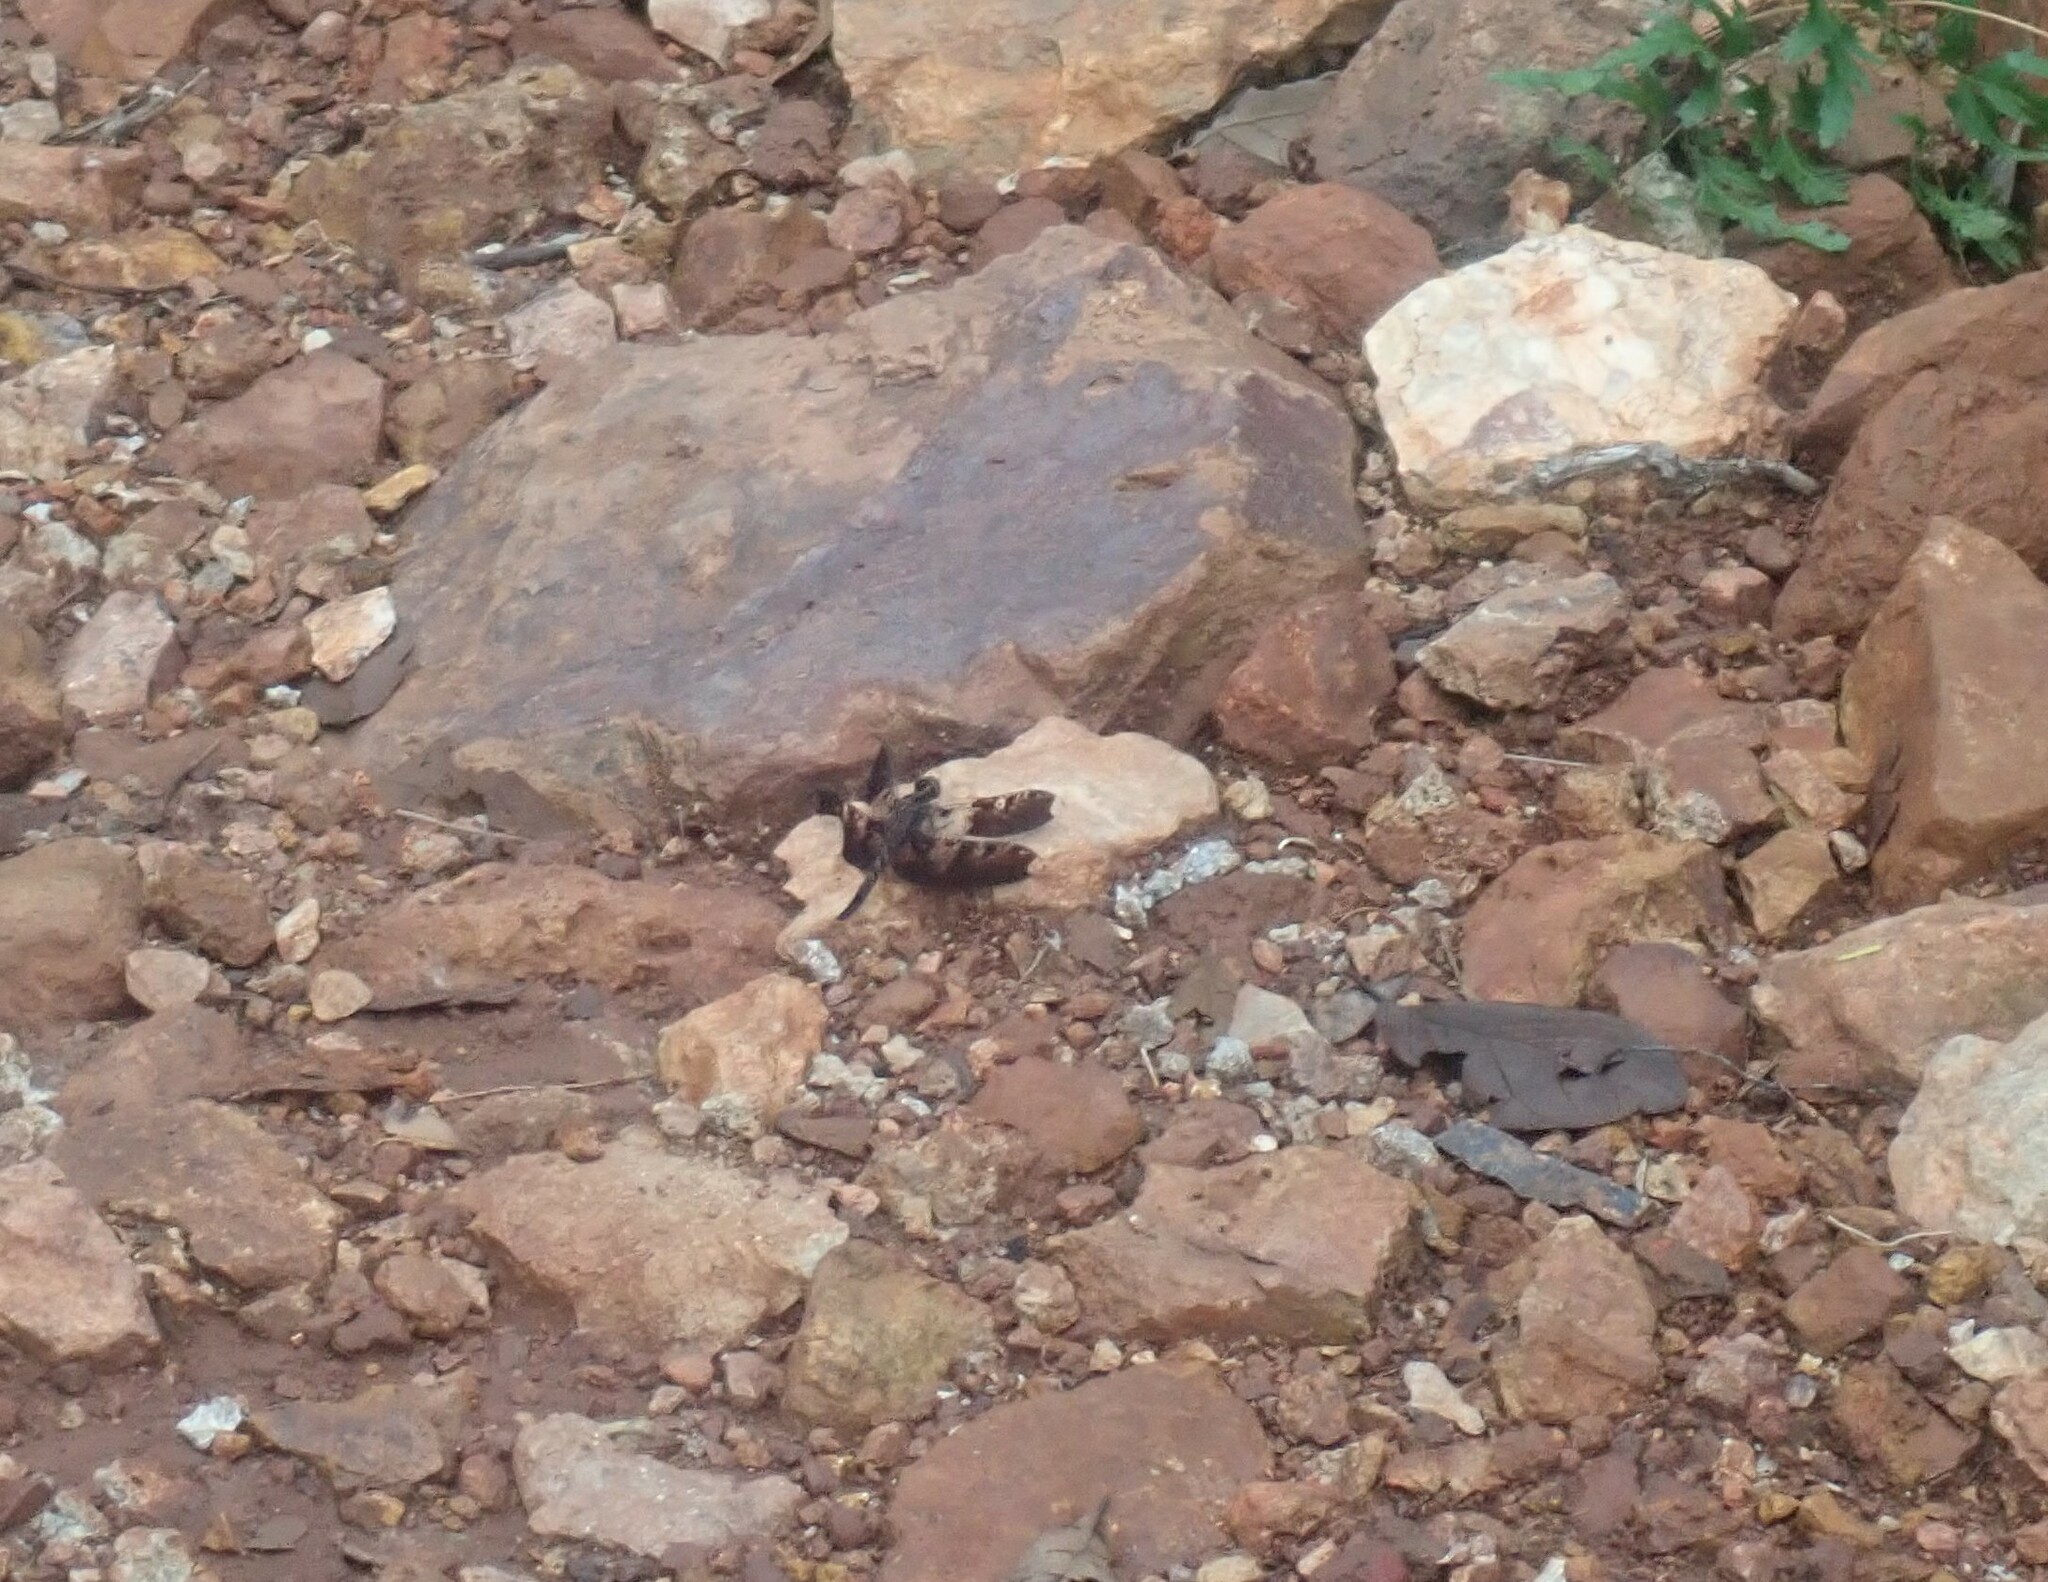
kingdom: Animalia
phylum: Arthropoda
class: Insecta
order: Odonata
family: Libellulidae
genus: Pseudoleon
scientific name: Pseudoleon superbus
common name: Filigree skimmer
